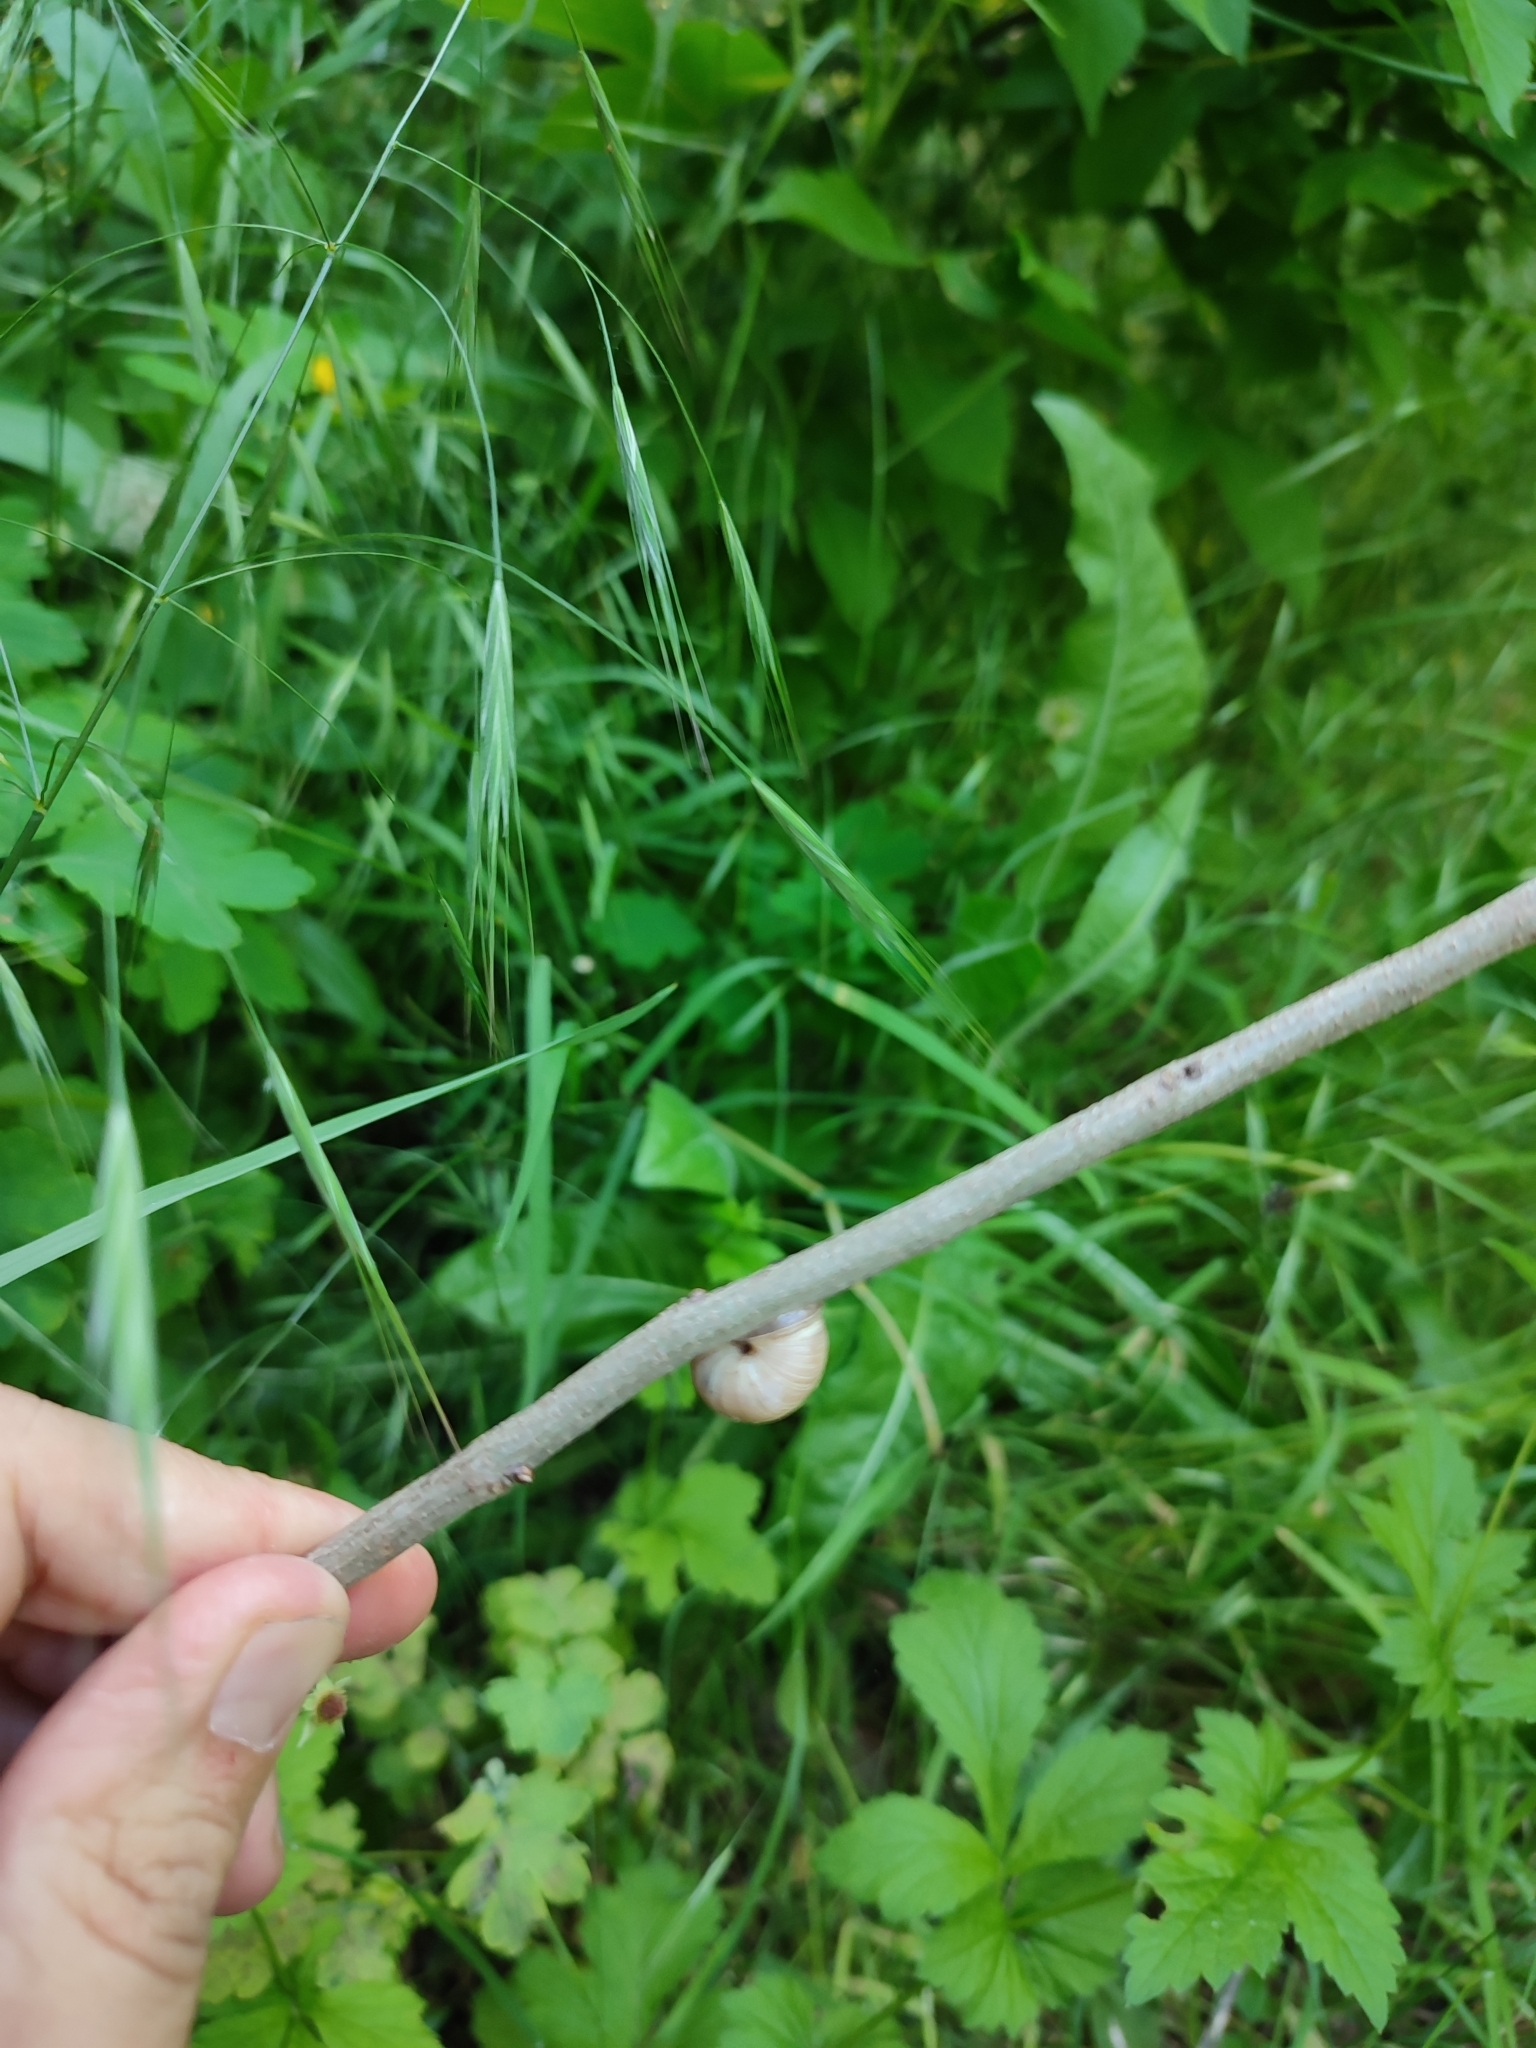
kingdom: Animalia
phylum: Mollusca
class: Gastropoda
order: Stylommatophora
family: Hygromiidae
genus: Harmozica
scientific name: Harmozica ravergiensis
